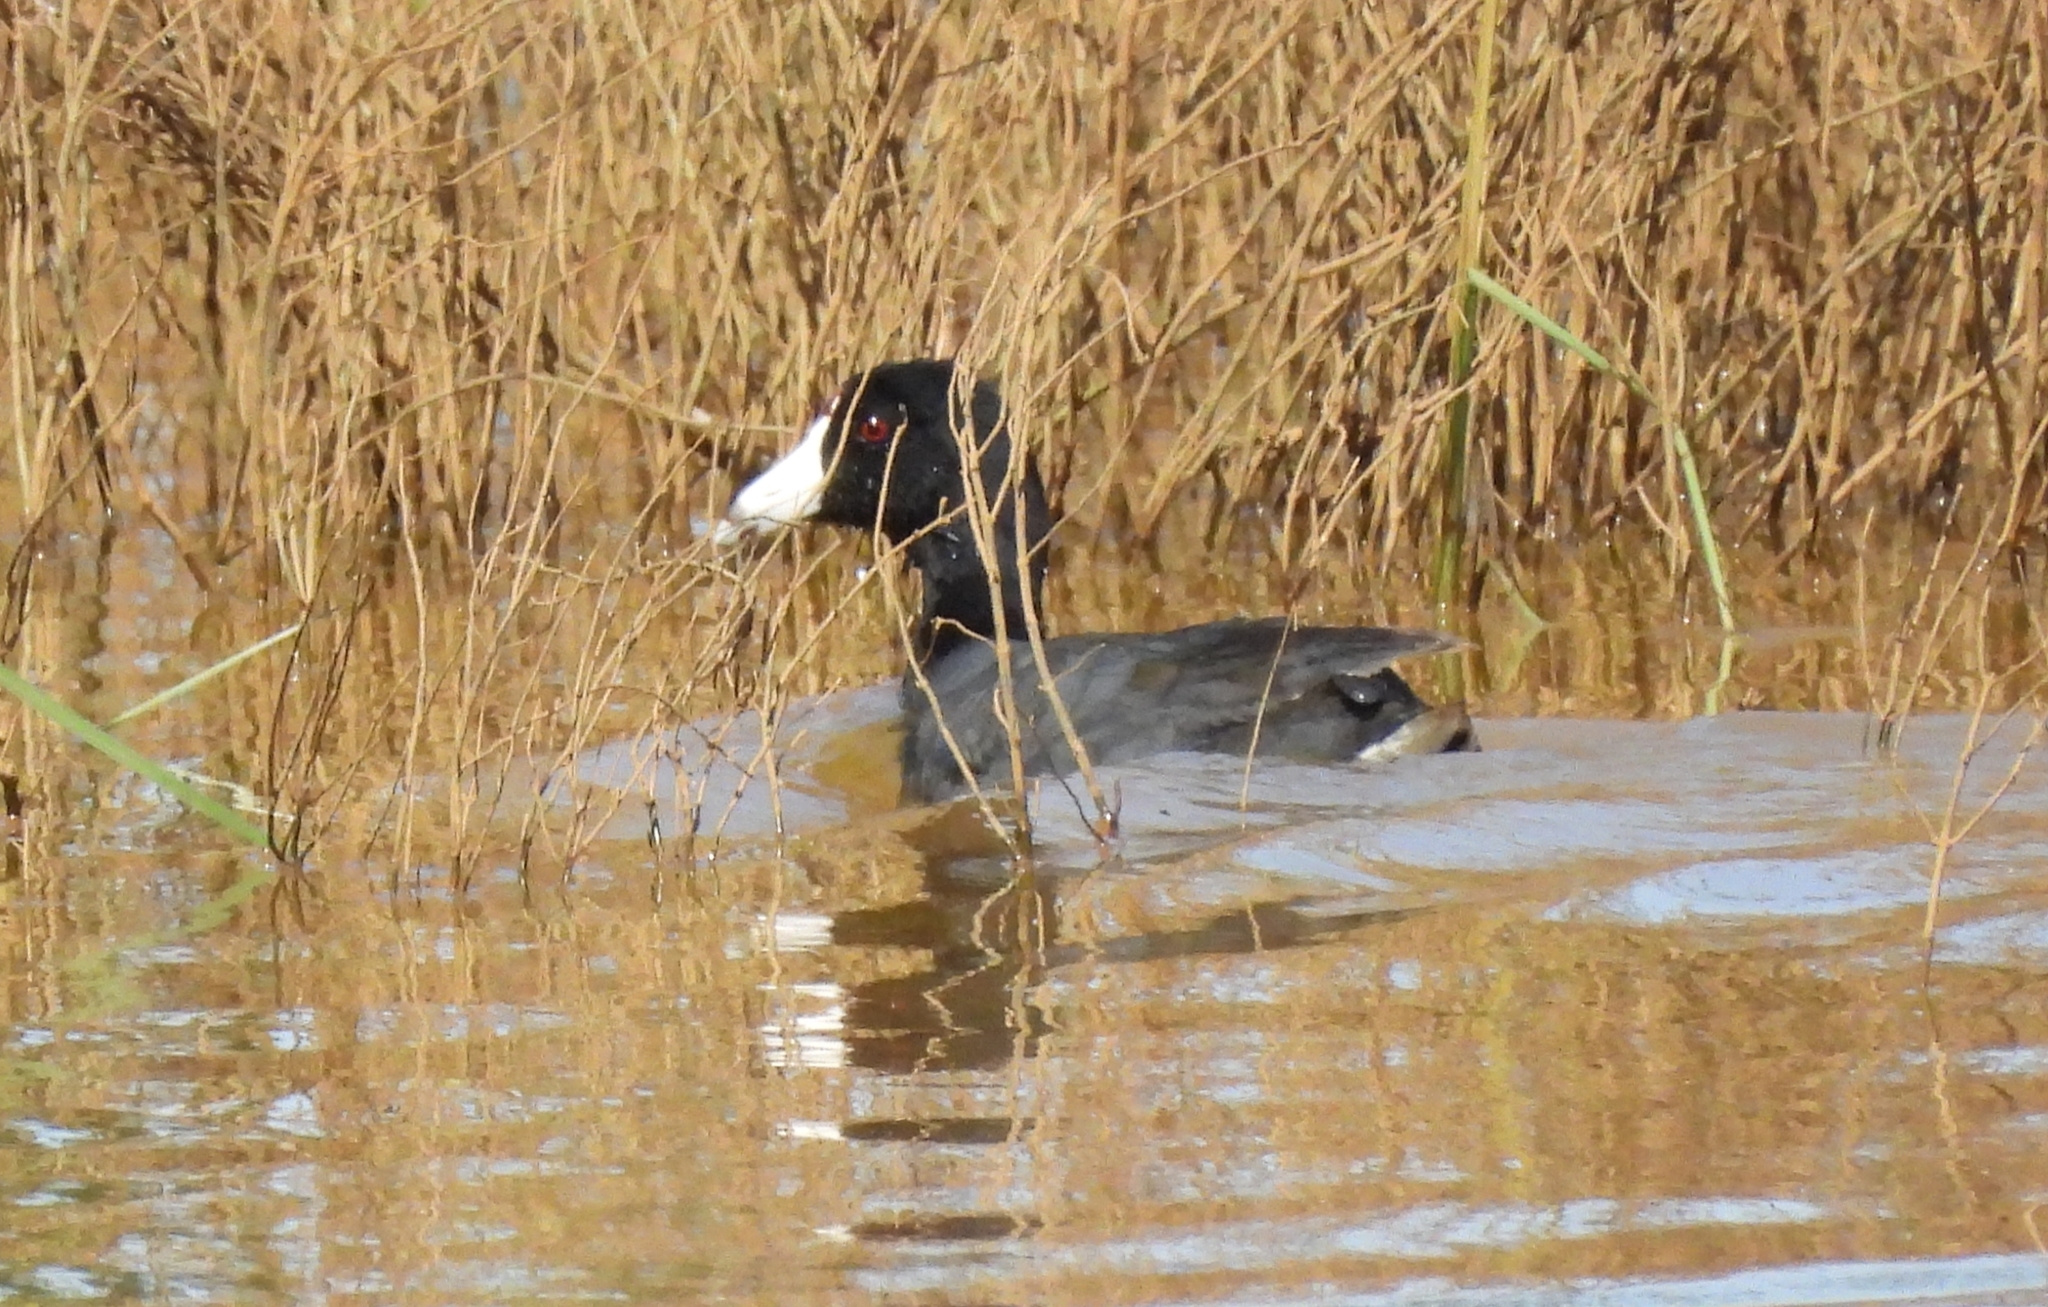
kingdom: Animalia
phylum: Chordata
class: Aves
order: Gruiformes
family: Rallidae
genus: Fulica
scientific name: Fulica americana
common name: American coot
